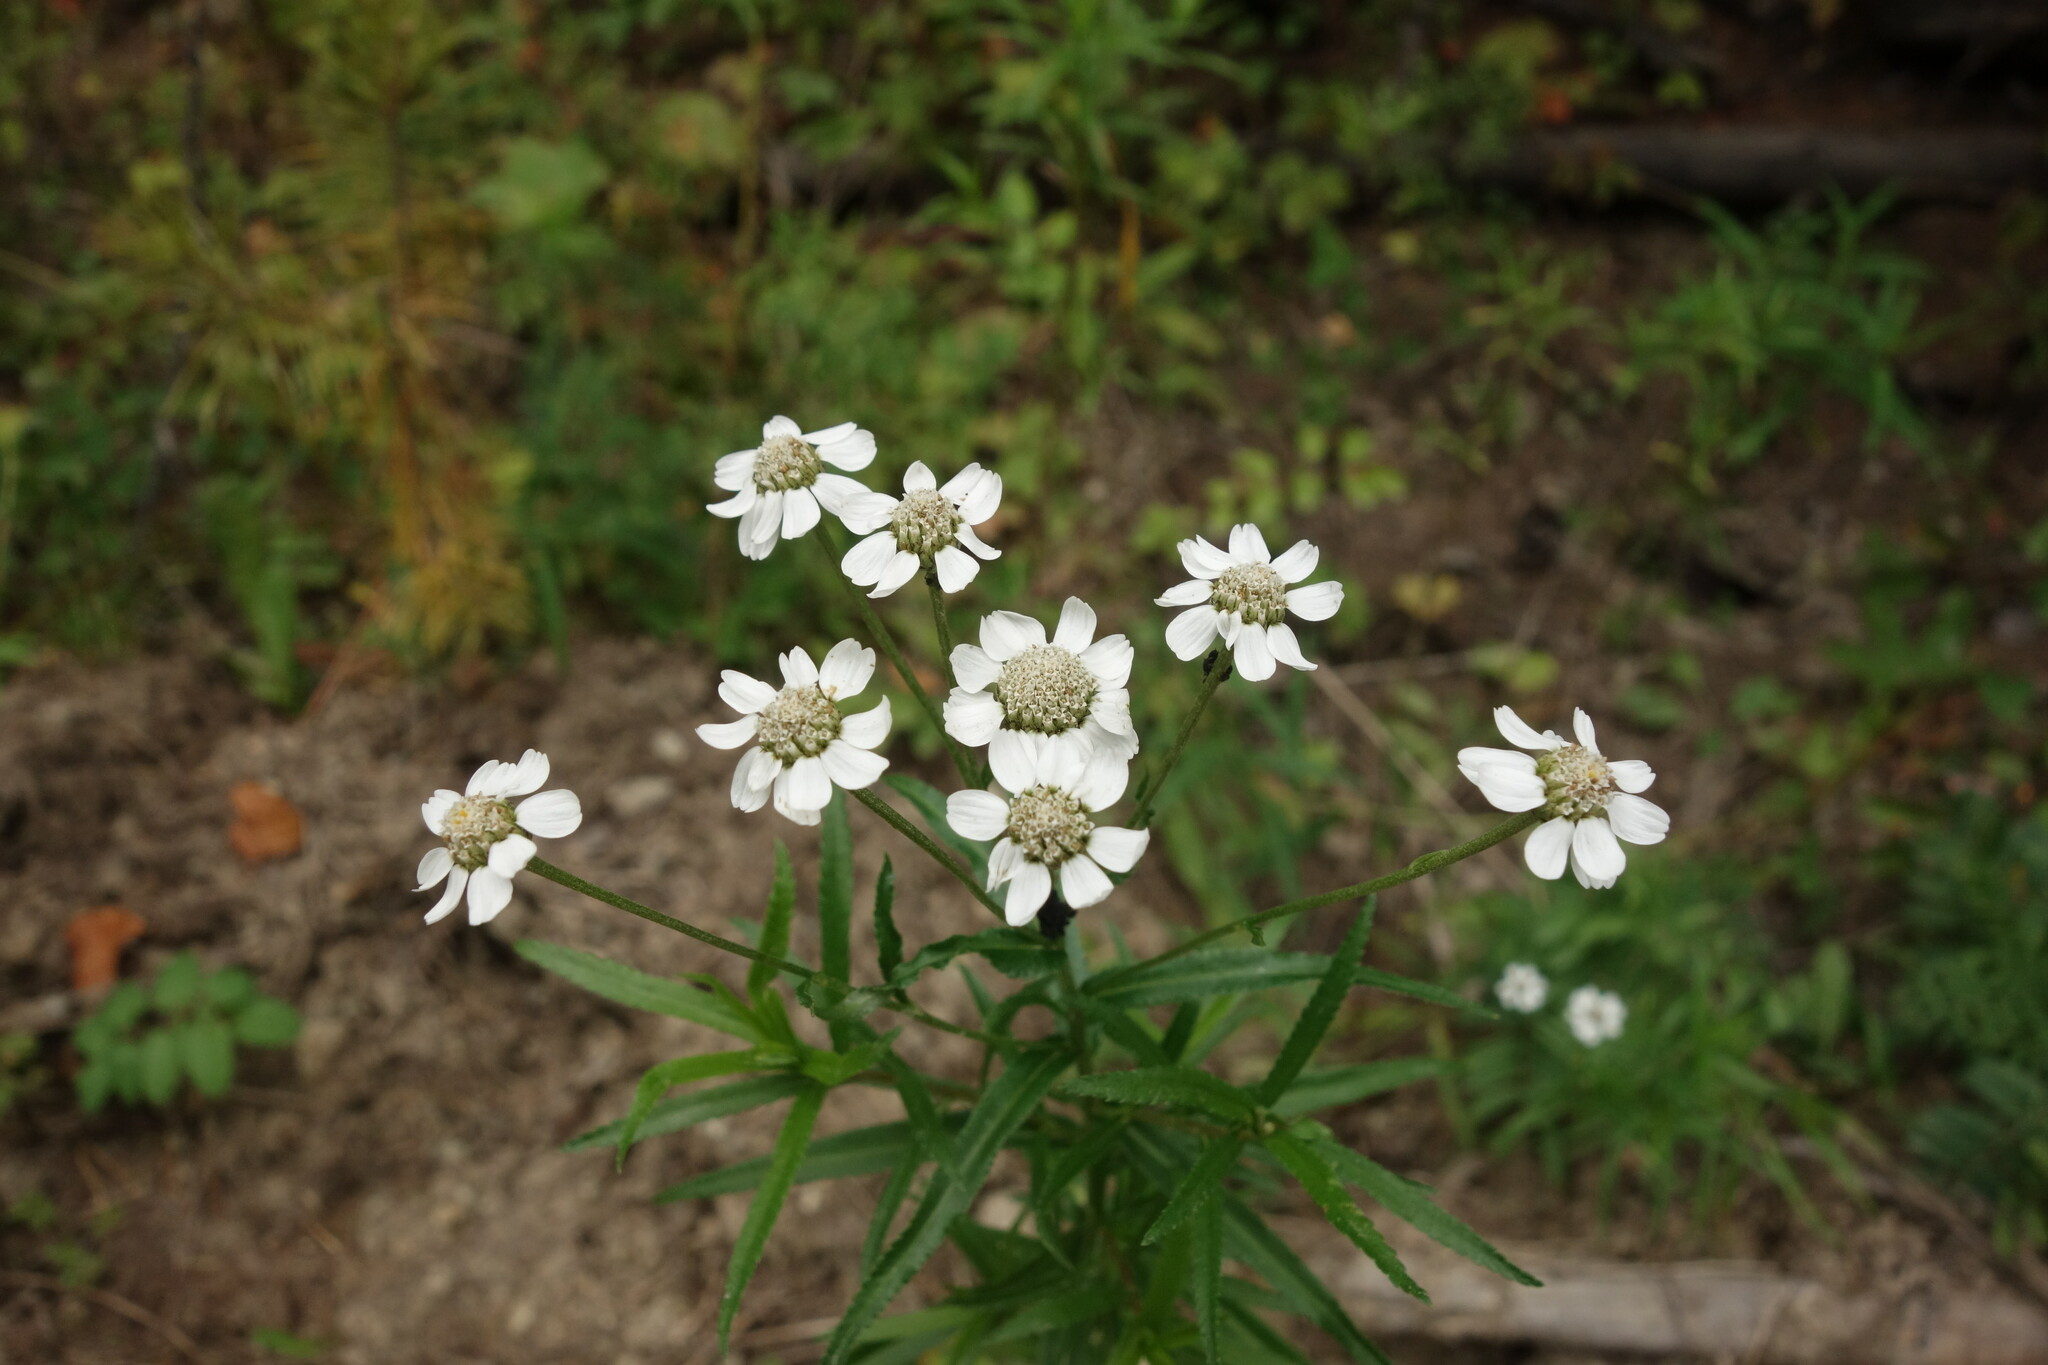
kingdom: Plantae
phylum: Tracheophyta
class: Magnoliopsida
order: Asterales
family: Asteraceae
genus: Achillea
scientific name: Achillea acuminata
